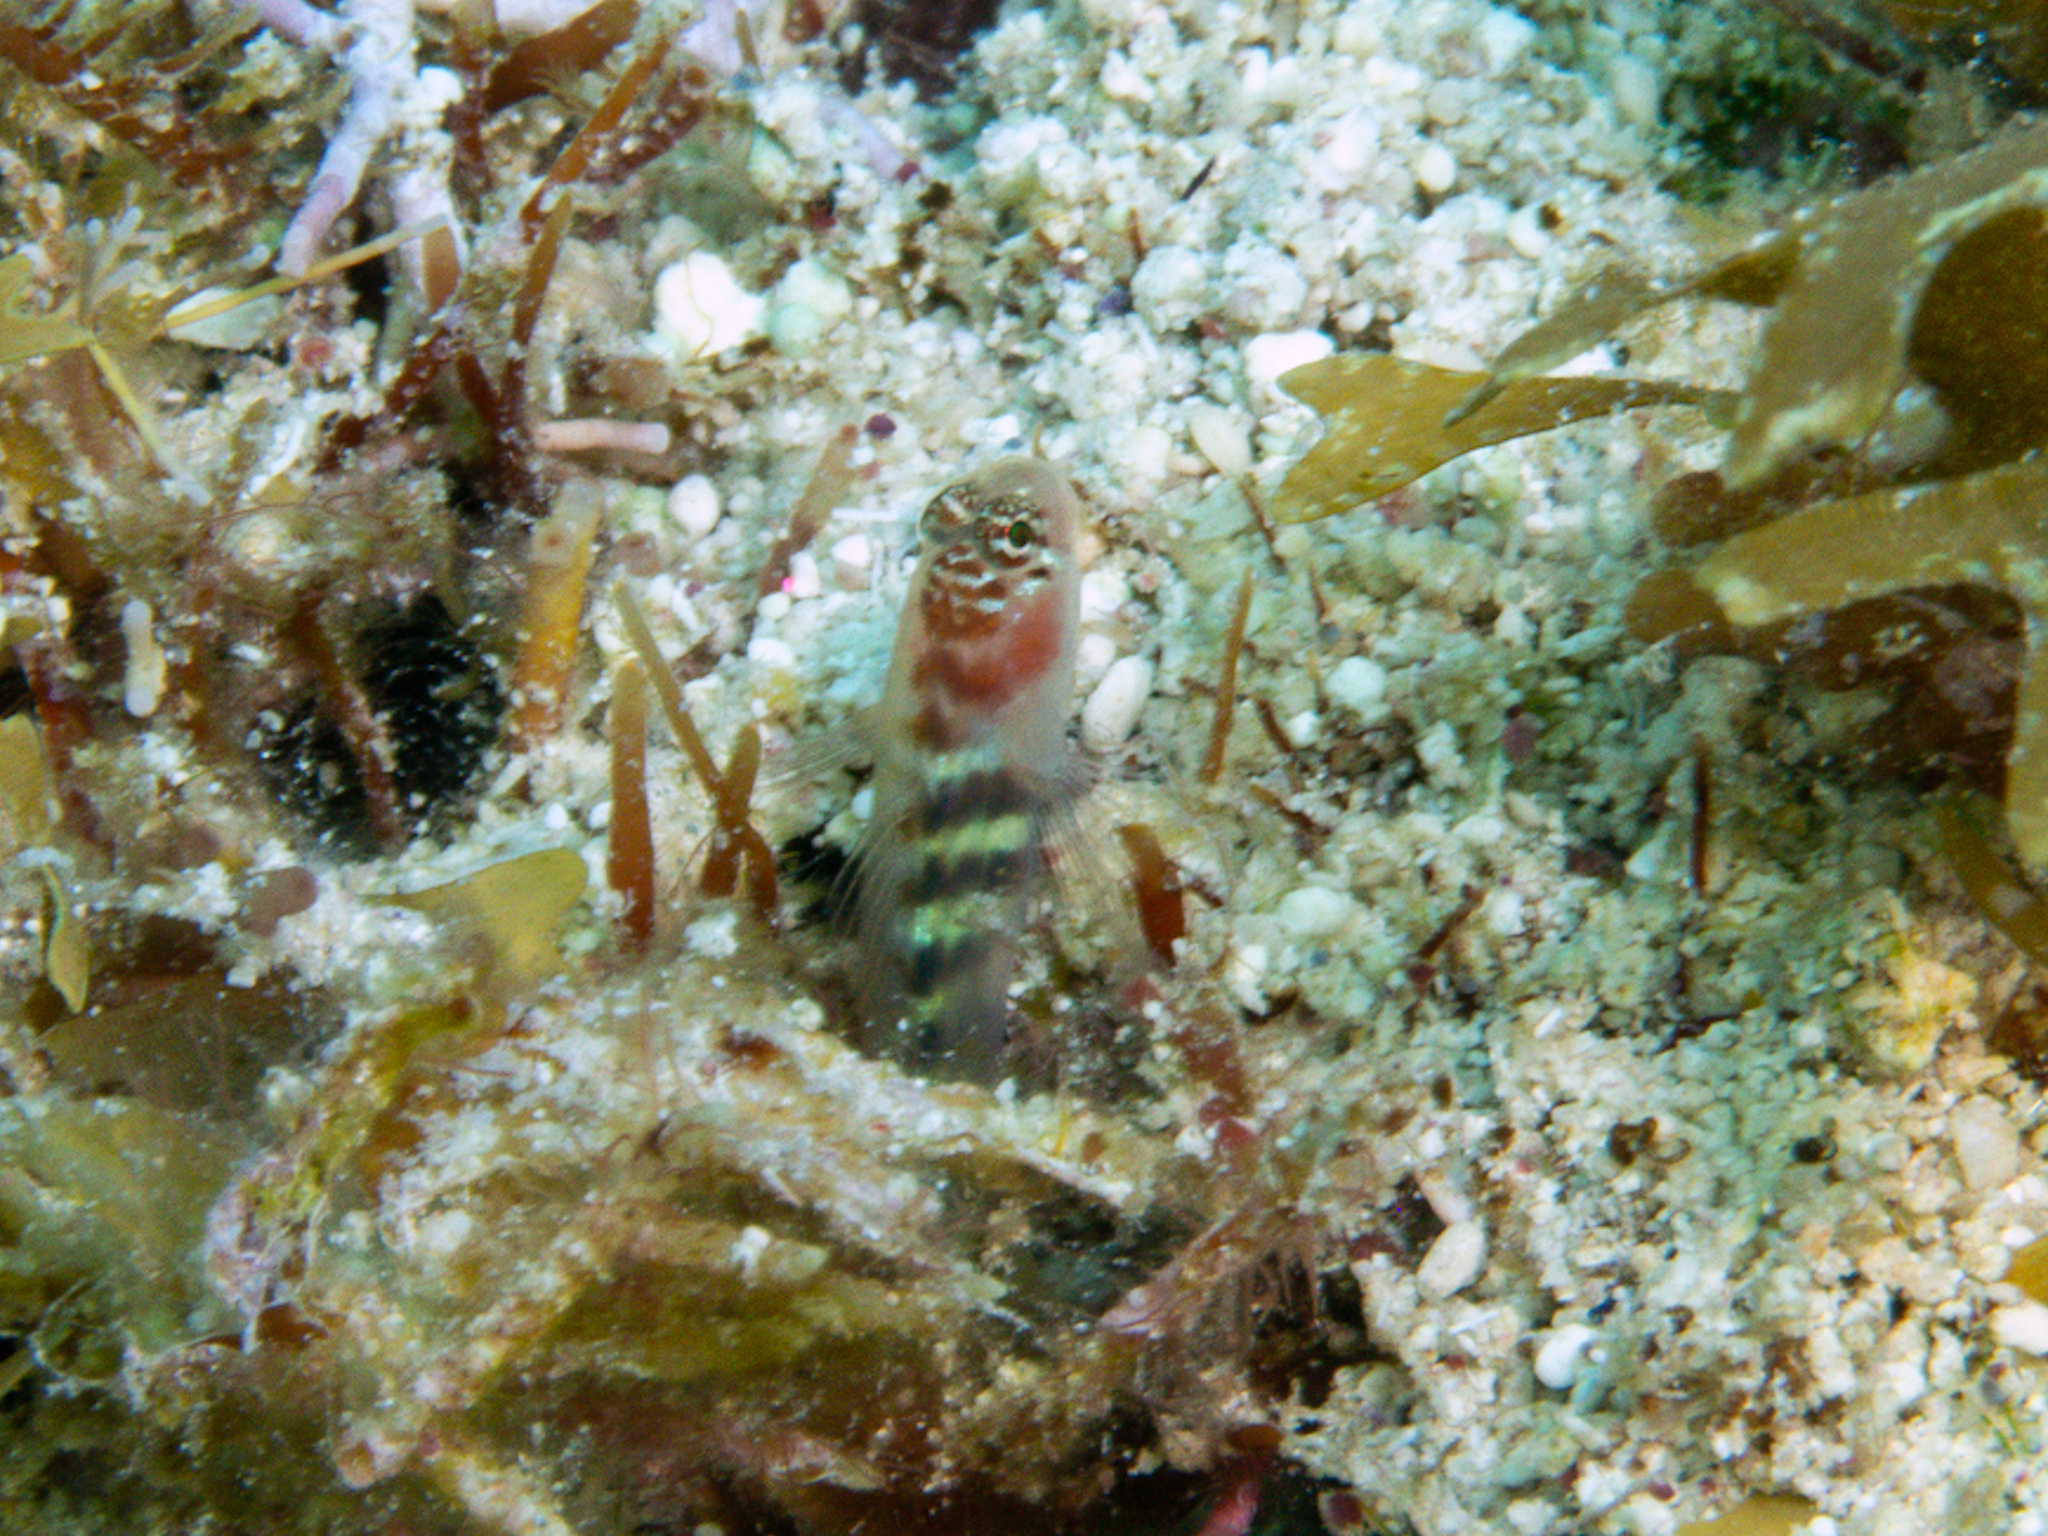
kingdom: Animalia
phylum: Chordata
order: Perciformes
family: Gobiidae
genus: Tigrigobius
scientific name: Tigrigobius pallens
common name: Semiscaled goby
